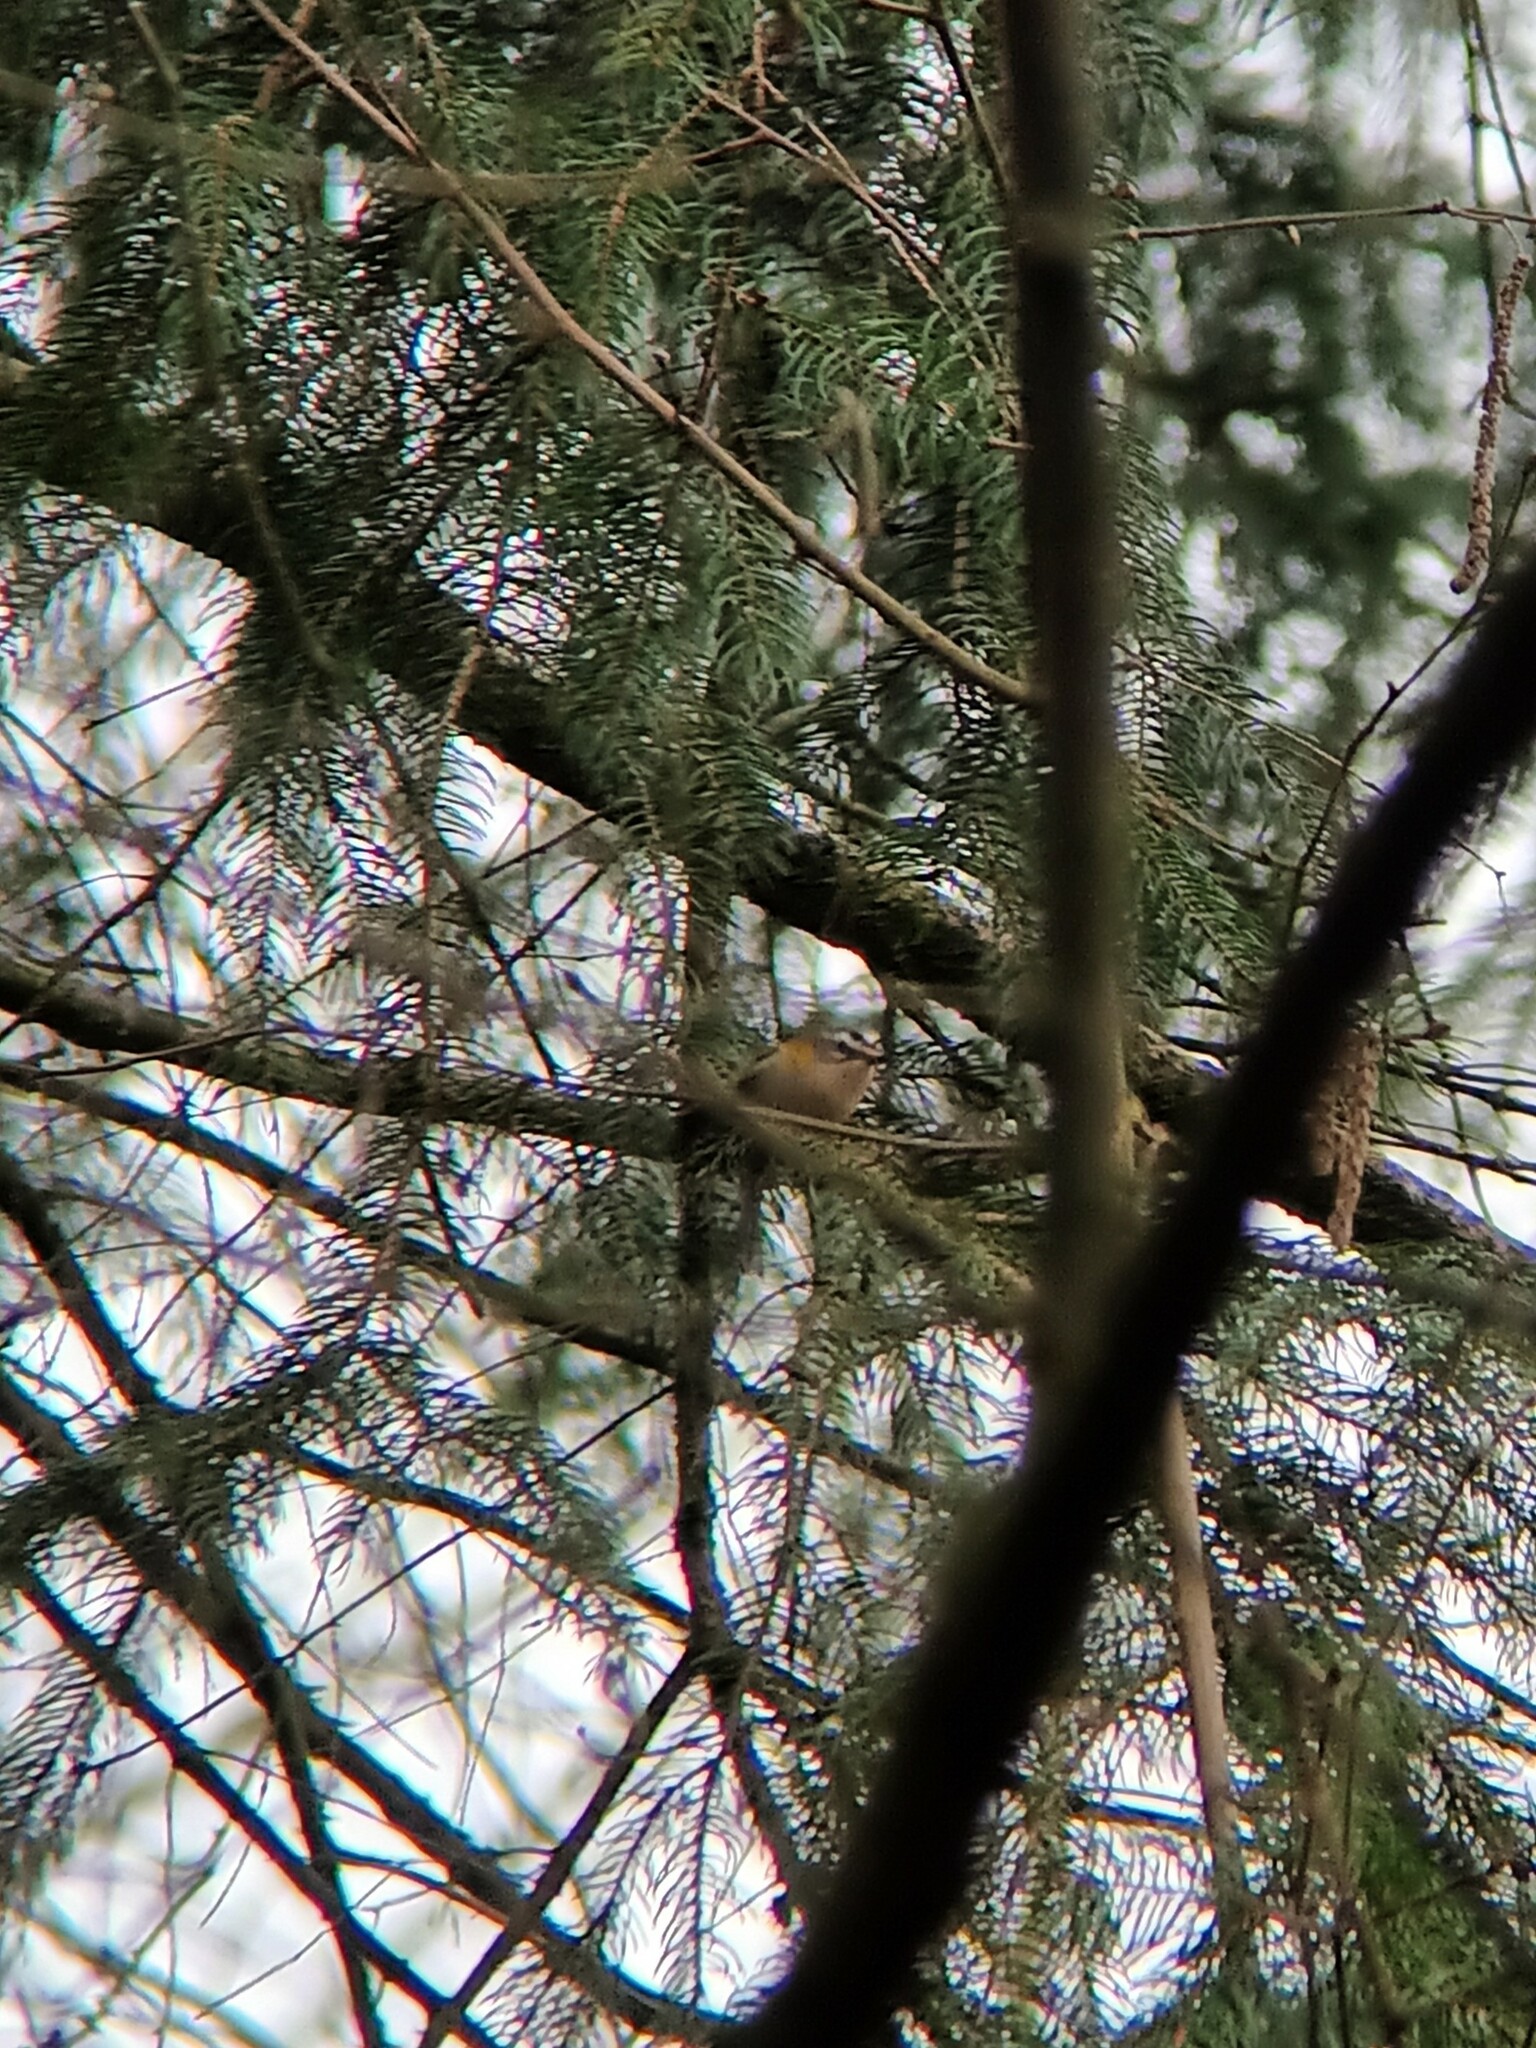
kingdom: Animalia
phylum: Chordata
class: Aves
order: Passeriformes
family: Regulidae
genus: Regulus
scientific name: Regulus ignicapilla
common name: Firecrest
